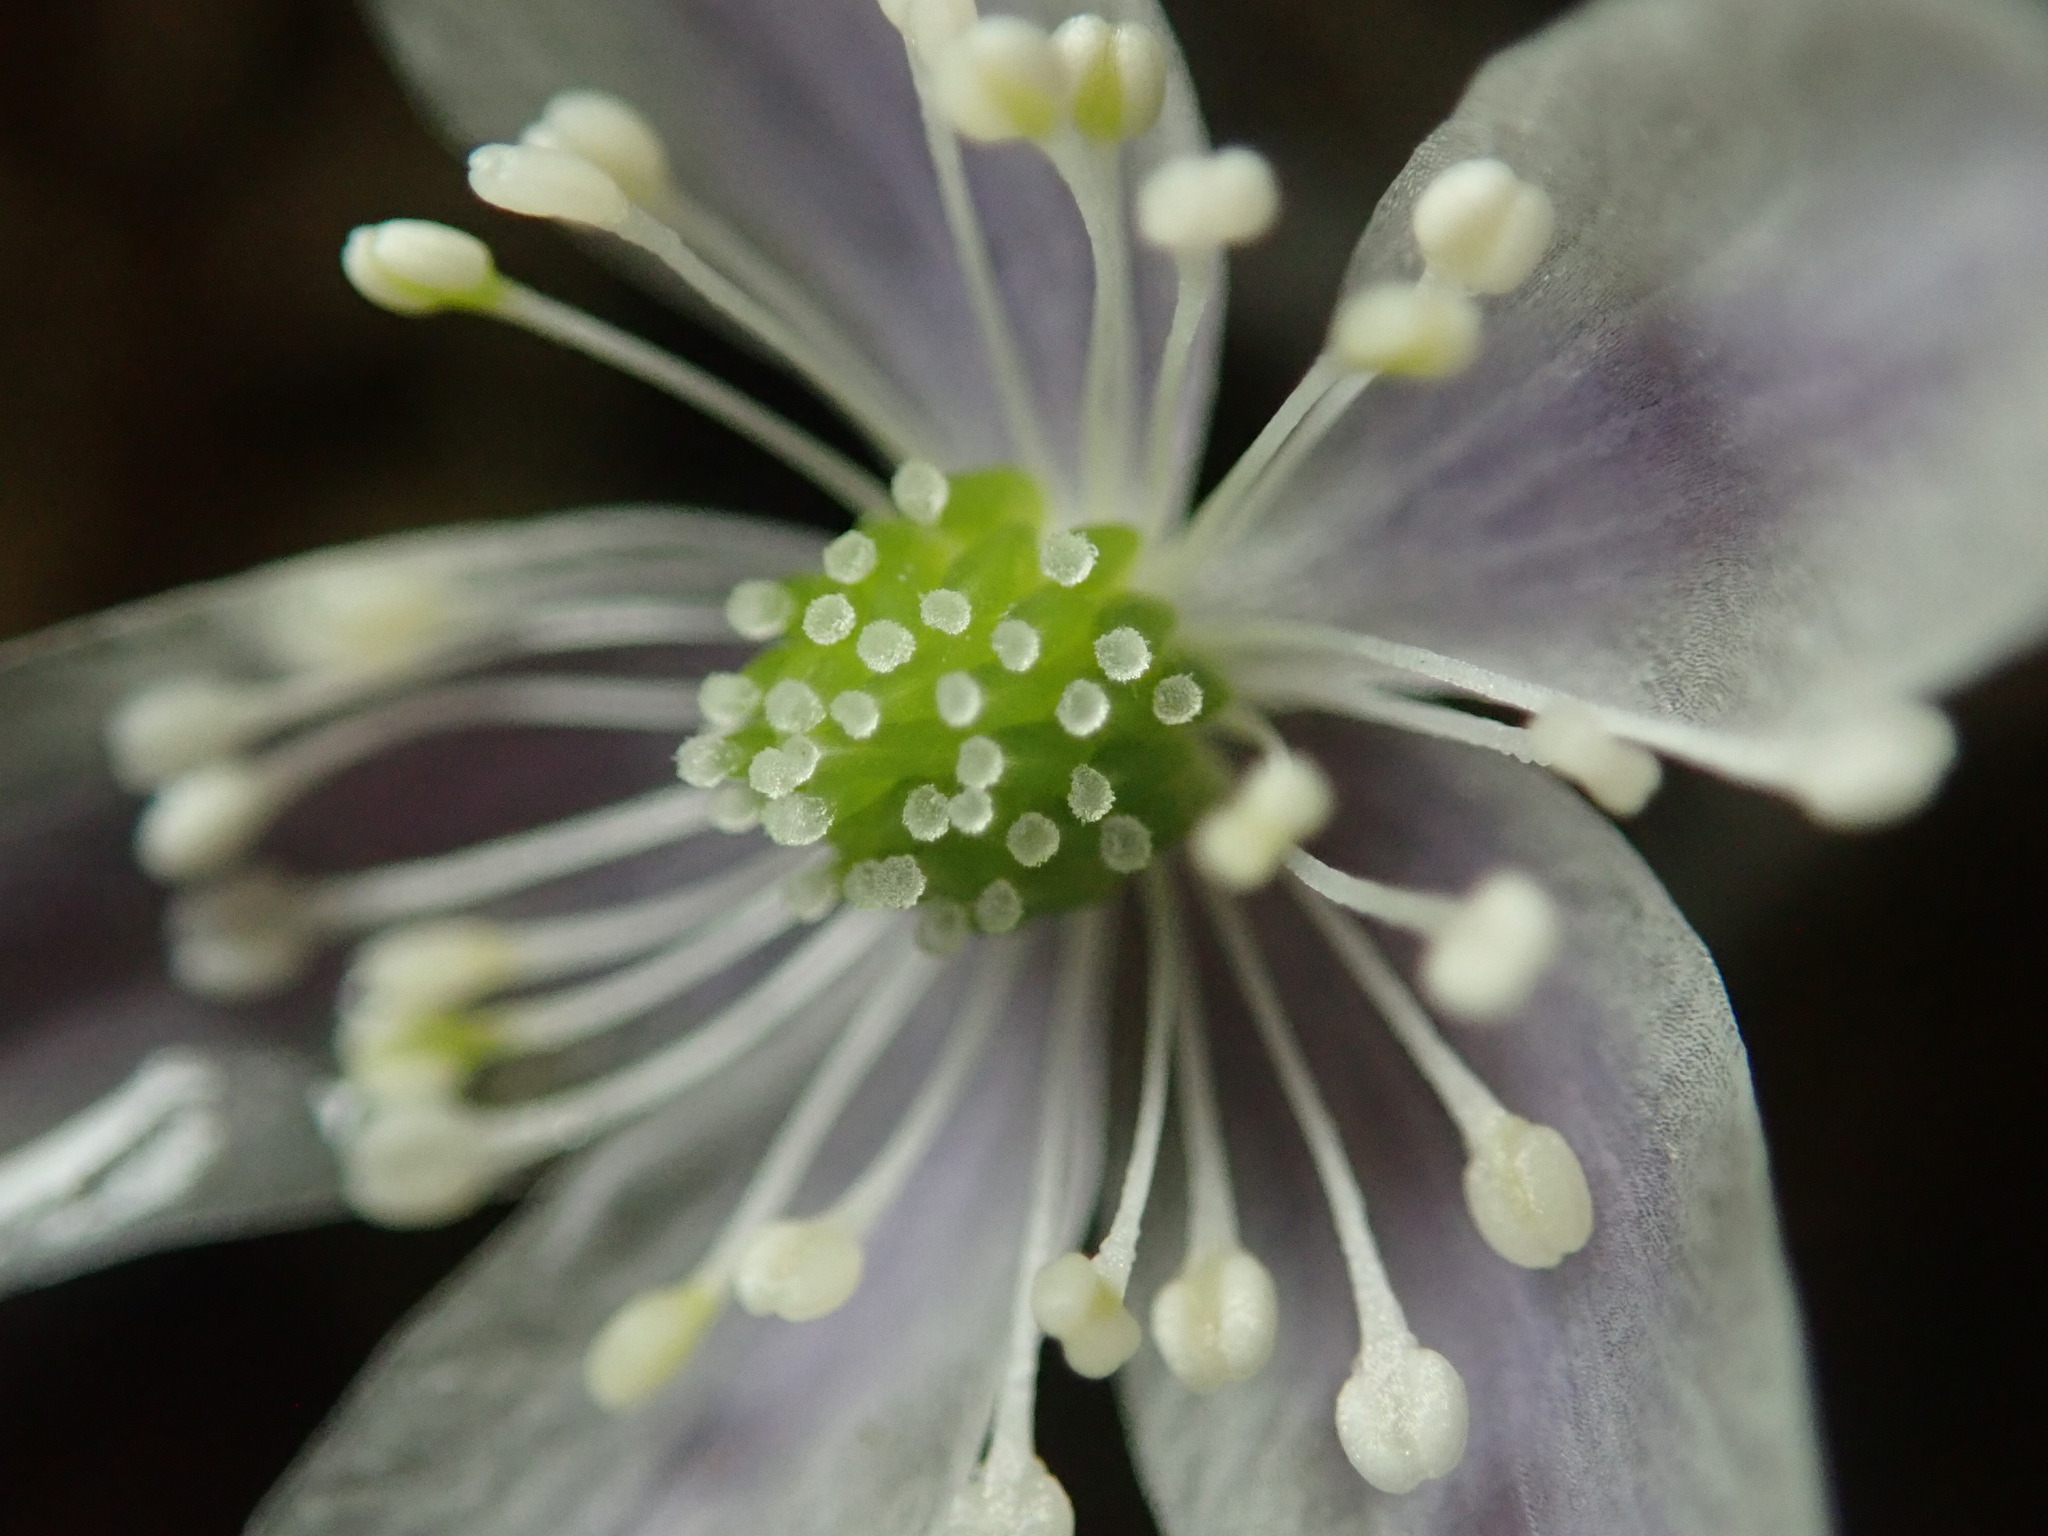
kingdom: Plantae
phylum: Tracheophyta
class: Magnoliopsida
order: Ranunculales
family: Ranunculaceae
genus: Anemone
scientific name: Anemone
